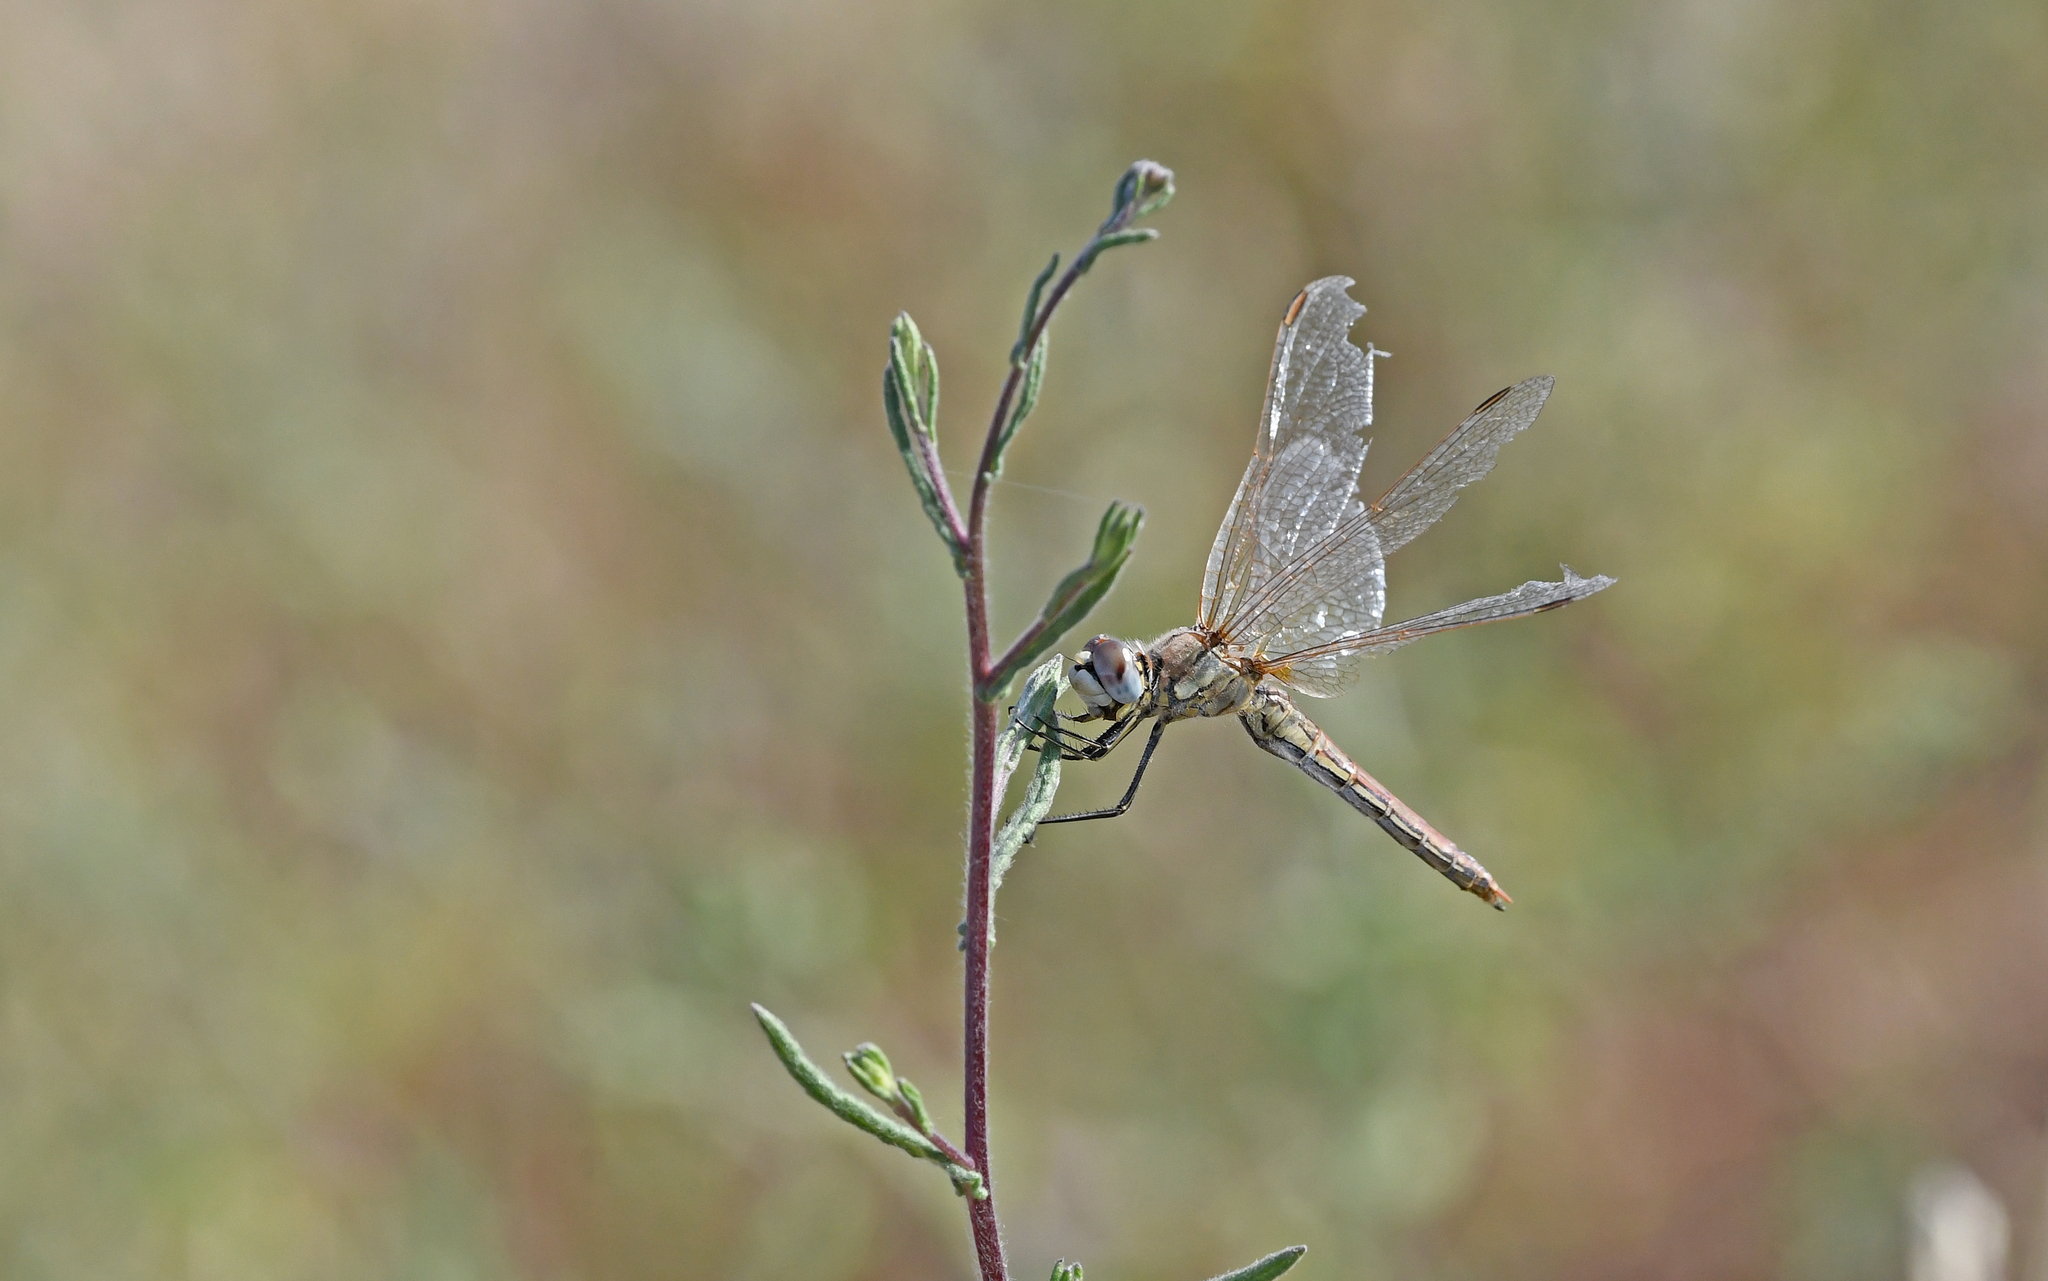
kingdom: Animalia
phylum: Arthropoda
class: Insecta
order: Odonata
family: Libellulidae
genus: Sympetrum
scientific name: Sympetrum fonscolombii
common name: Red-veined darter
